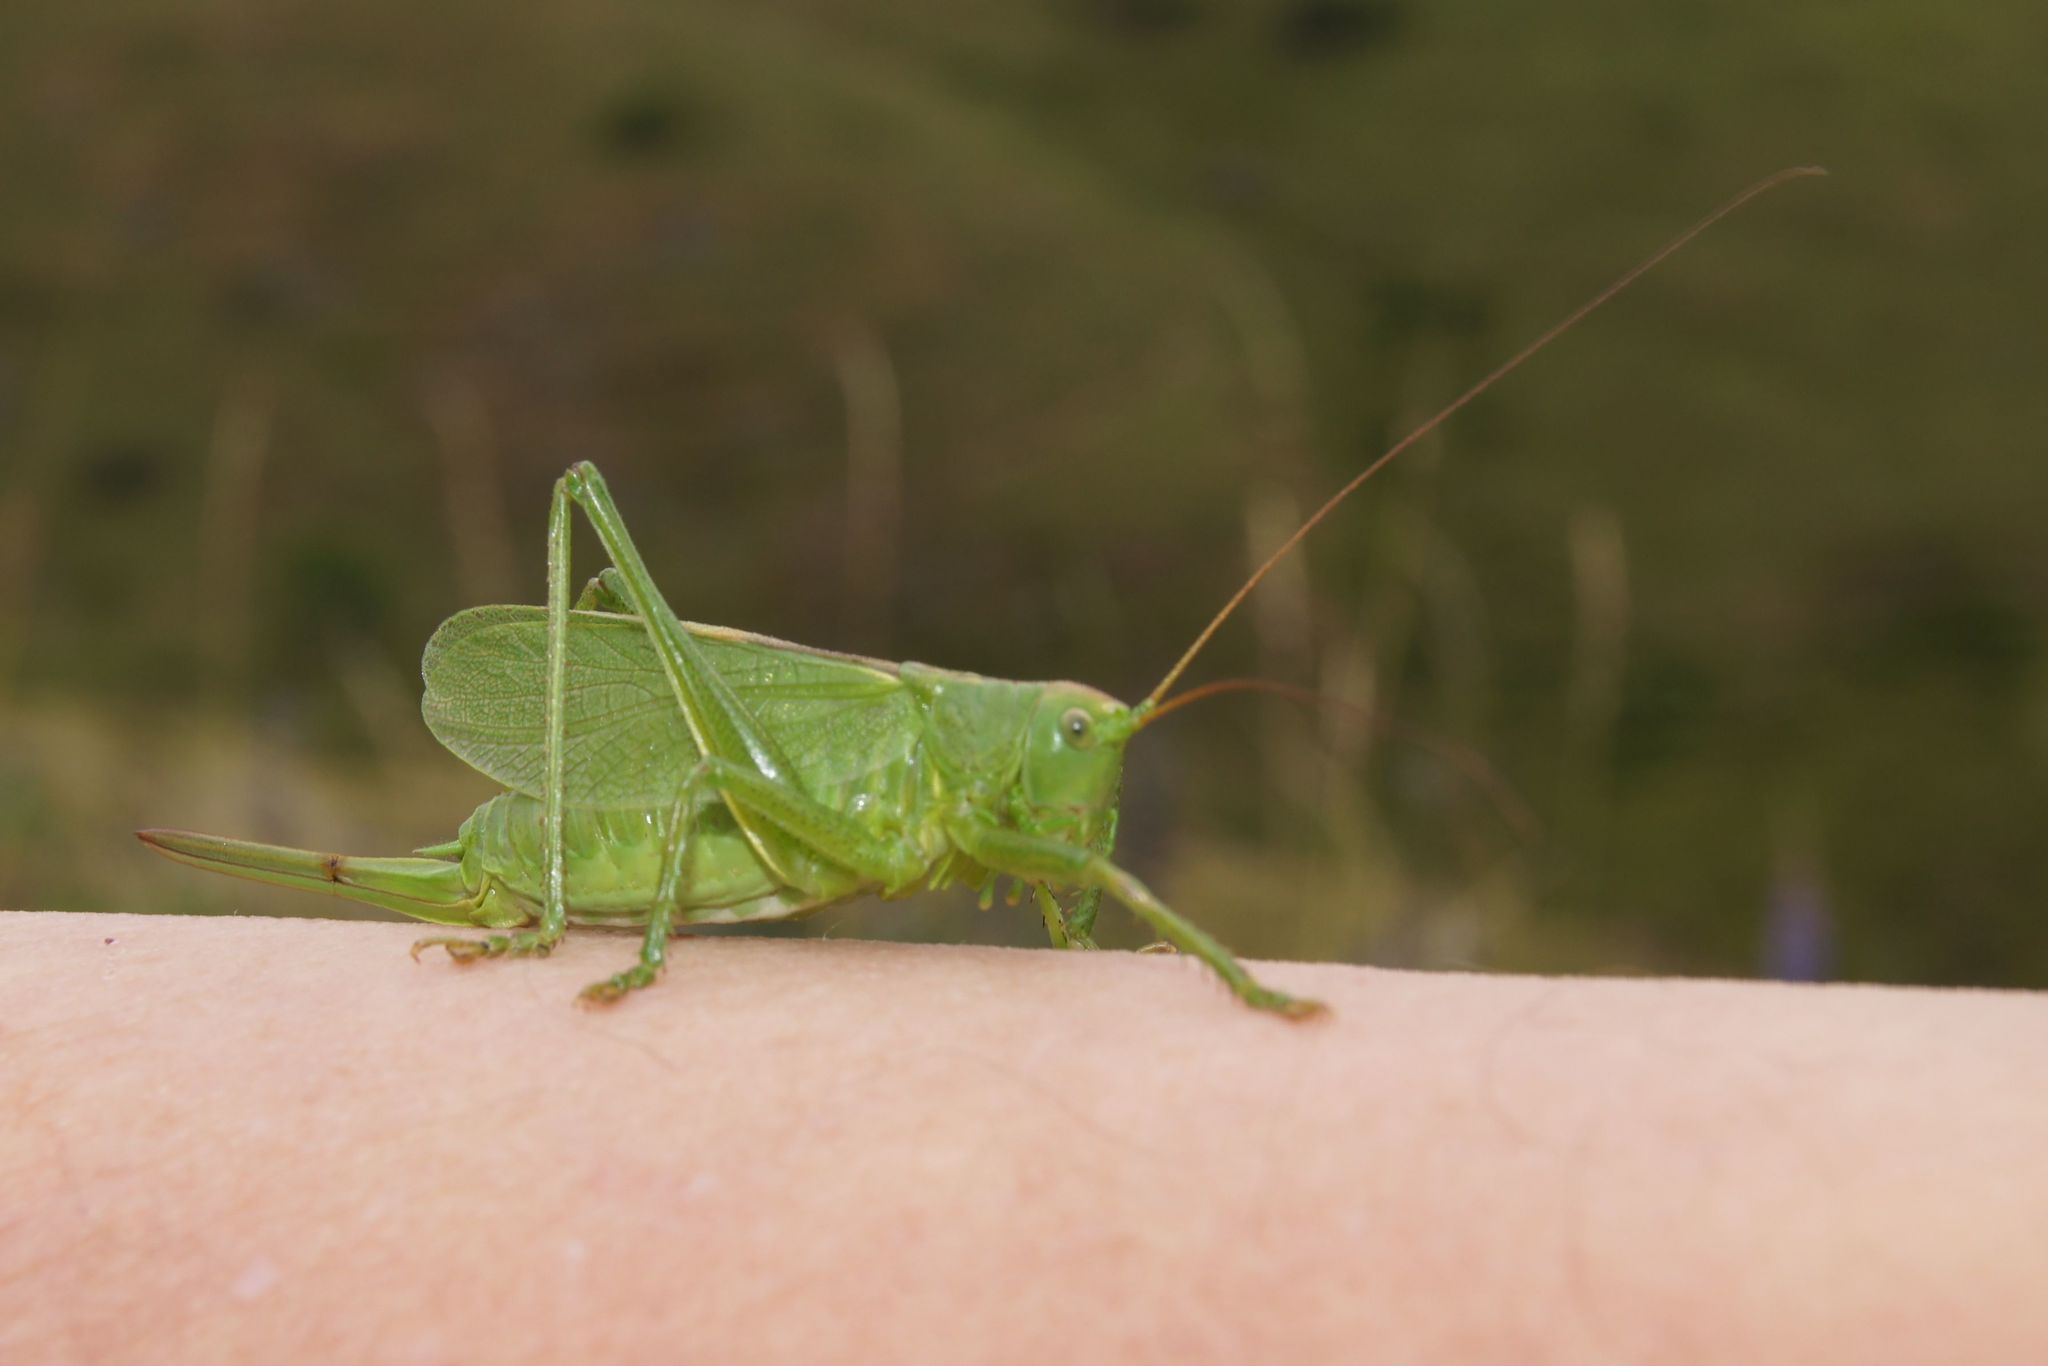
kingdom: Animalia
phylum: Arthropoda
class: Insecta
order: Orthoptera
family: Tettigoniidae
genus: Tettigonia
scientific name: Tettigonia cantans
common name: Upland green bush-cricket
